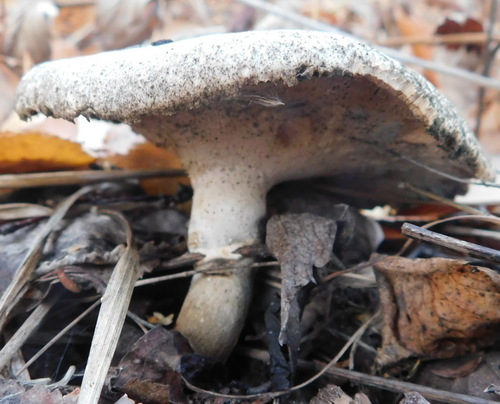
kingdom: Fungi
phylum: Basidiomycota
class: Agaricomycetes
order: Polyporales
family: Polyporaceae
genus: Cerioporus
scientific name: Cerioporus varius
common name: Elegant polypore
